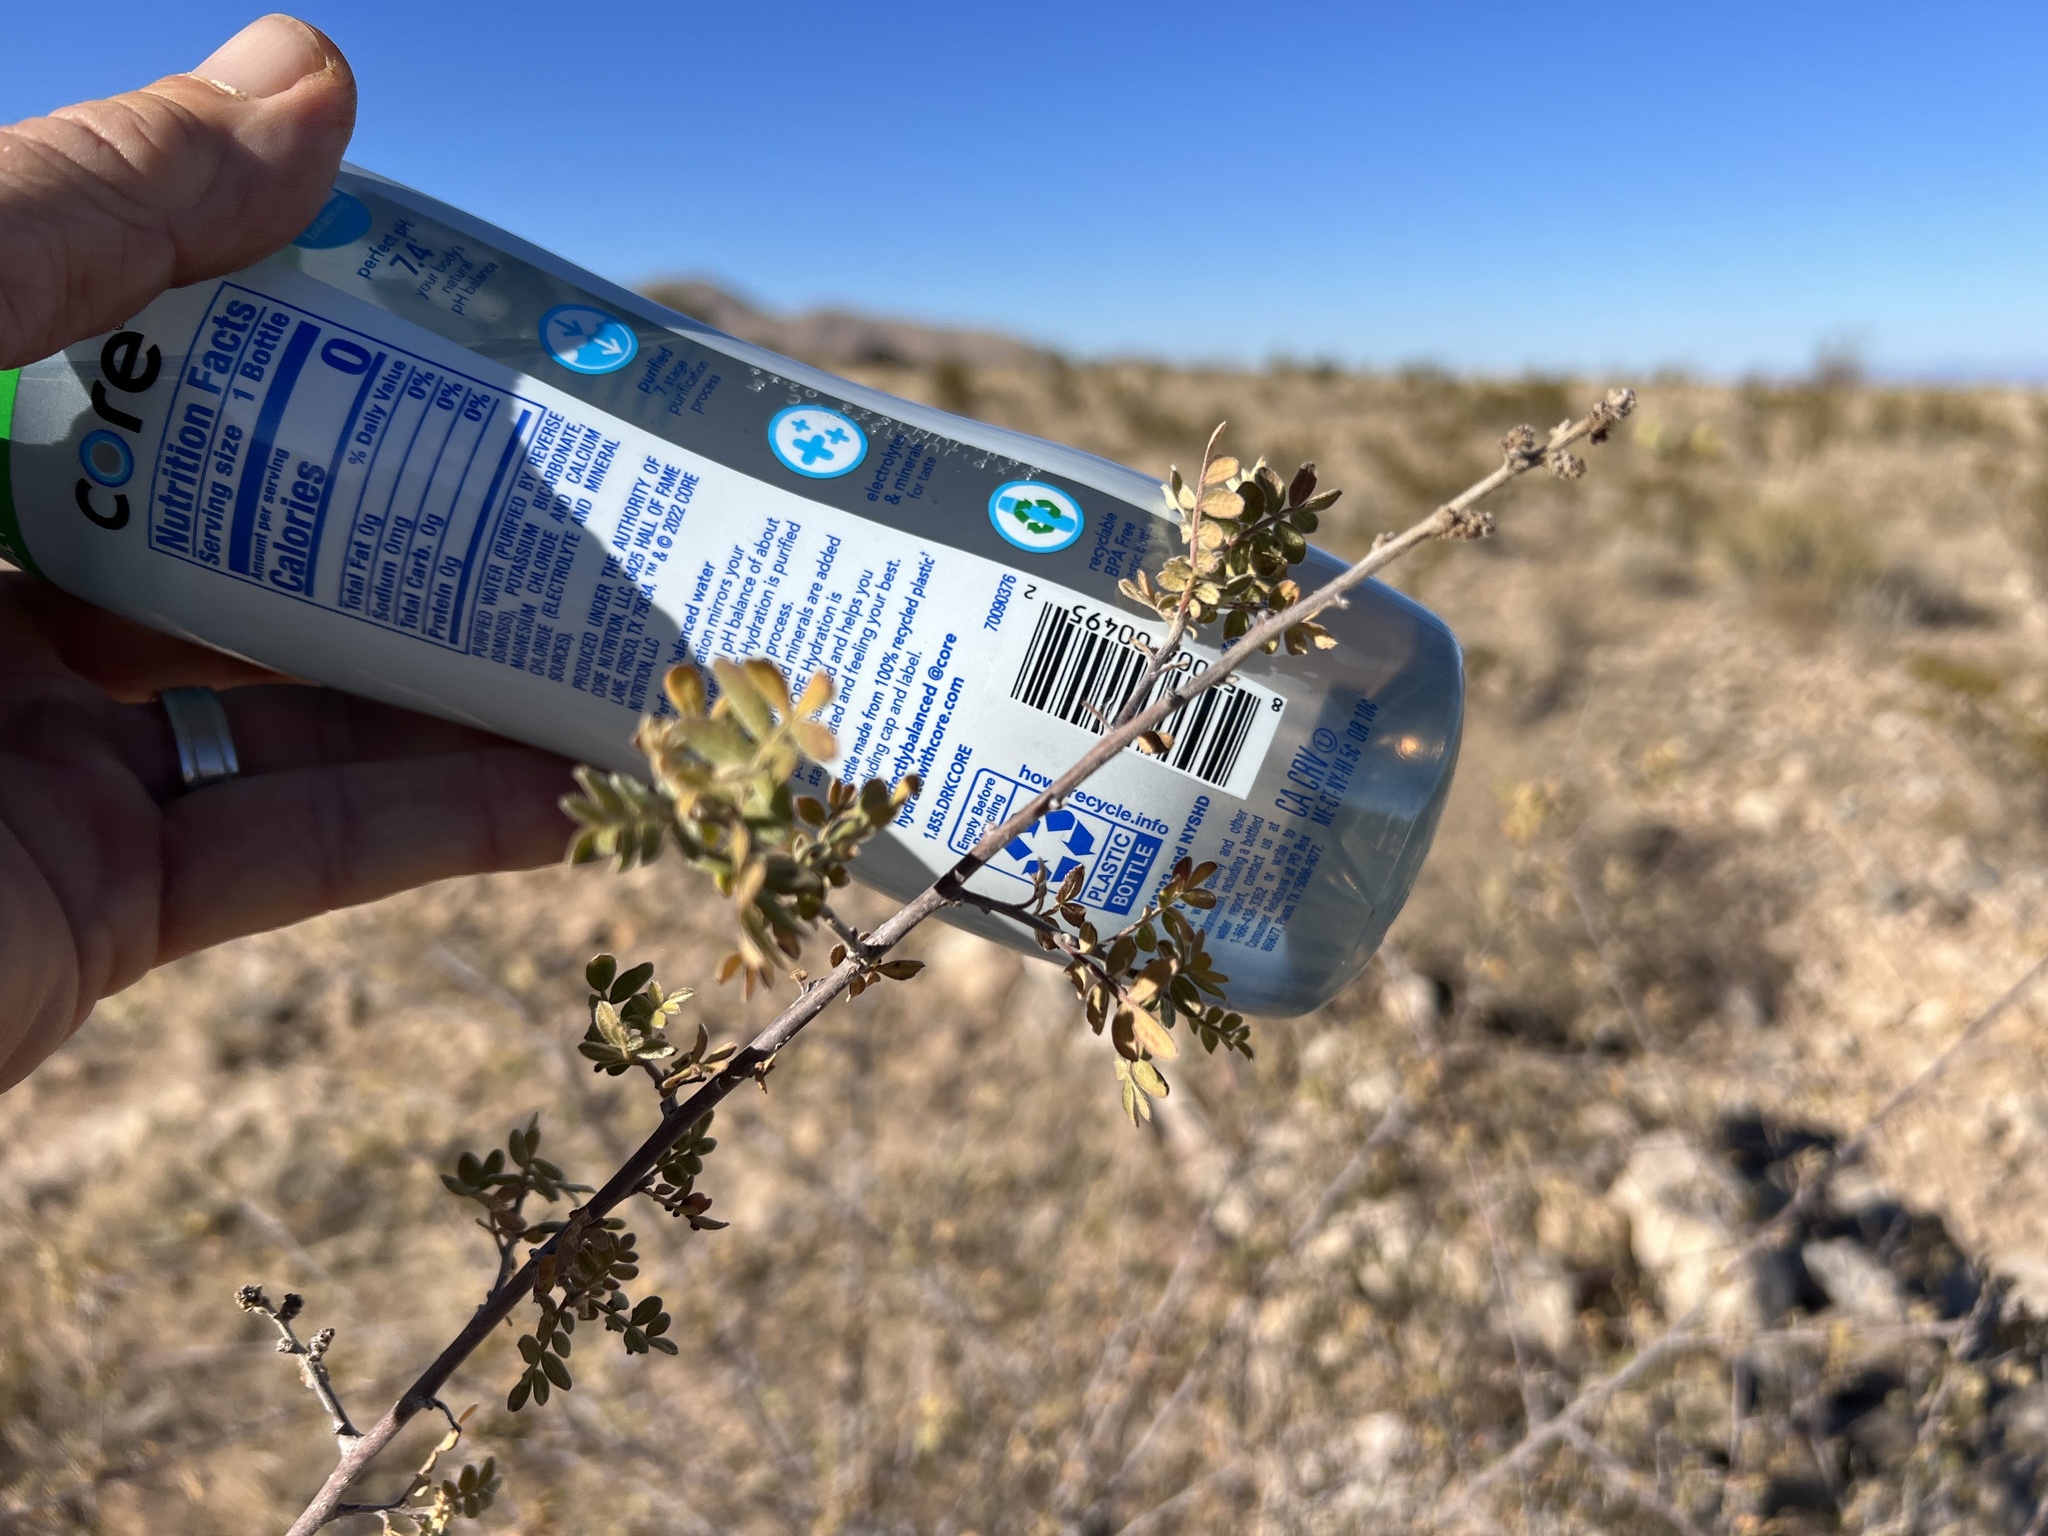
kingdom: Plantae
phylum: Tracheophyta
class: Magnoliopsida
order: Sapindales
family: Anacardiaceae
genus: Rhus
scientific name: Rhus microphylla
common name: Desert sumac
